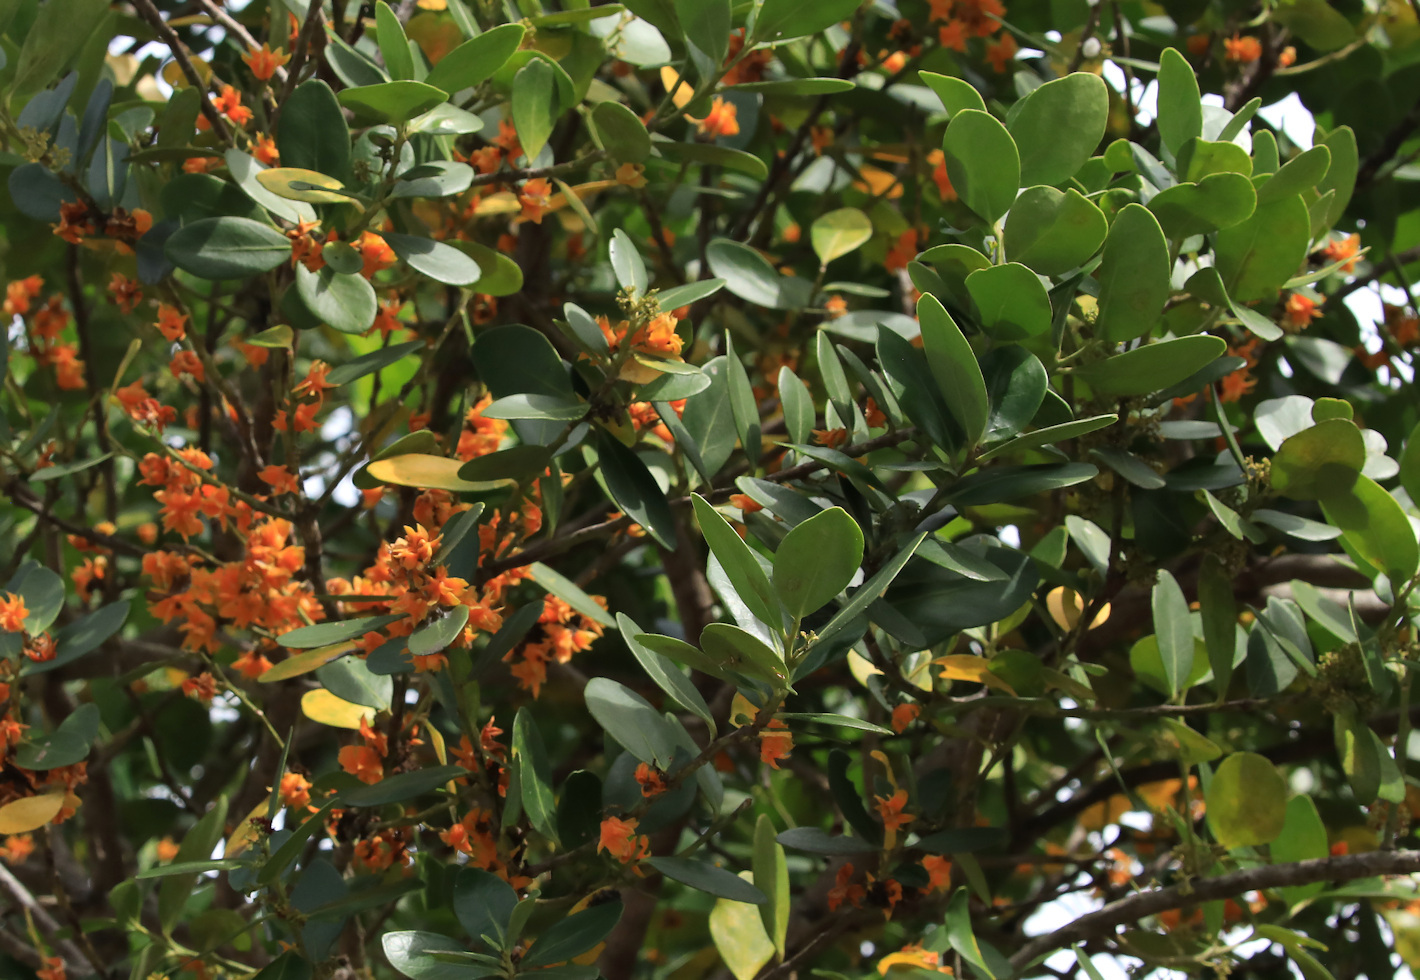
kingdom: Plantae
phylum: Tracheophyta
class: Magnoliopsida
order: Celastrales
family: Celastraceae
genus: Pterocelastrus
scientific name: Pterocelastrus tricuspidatus
